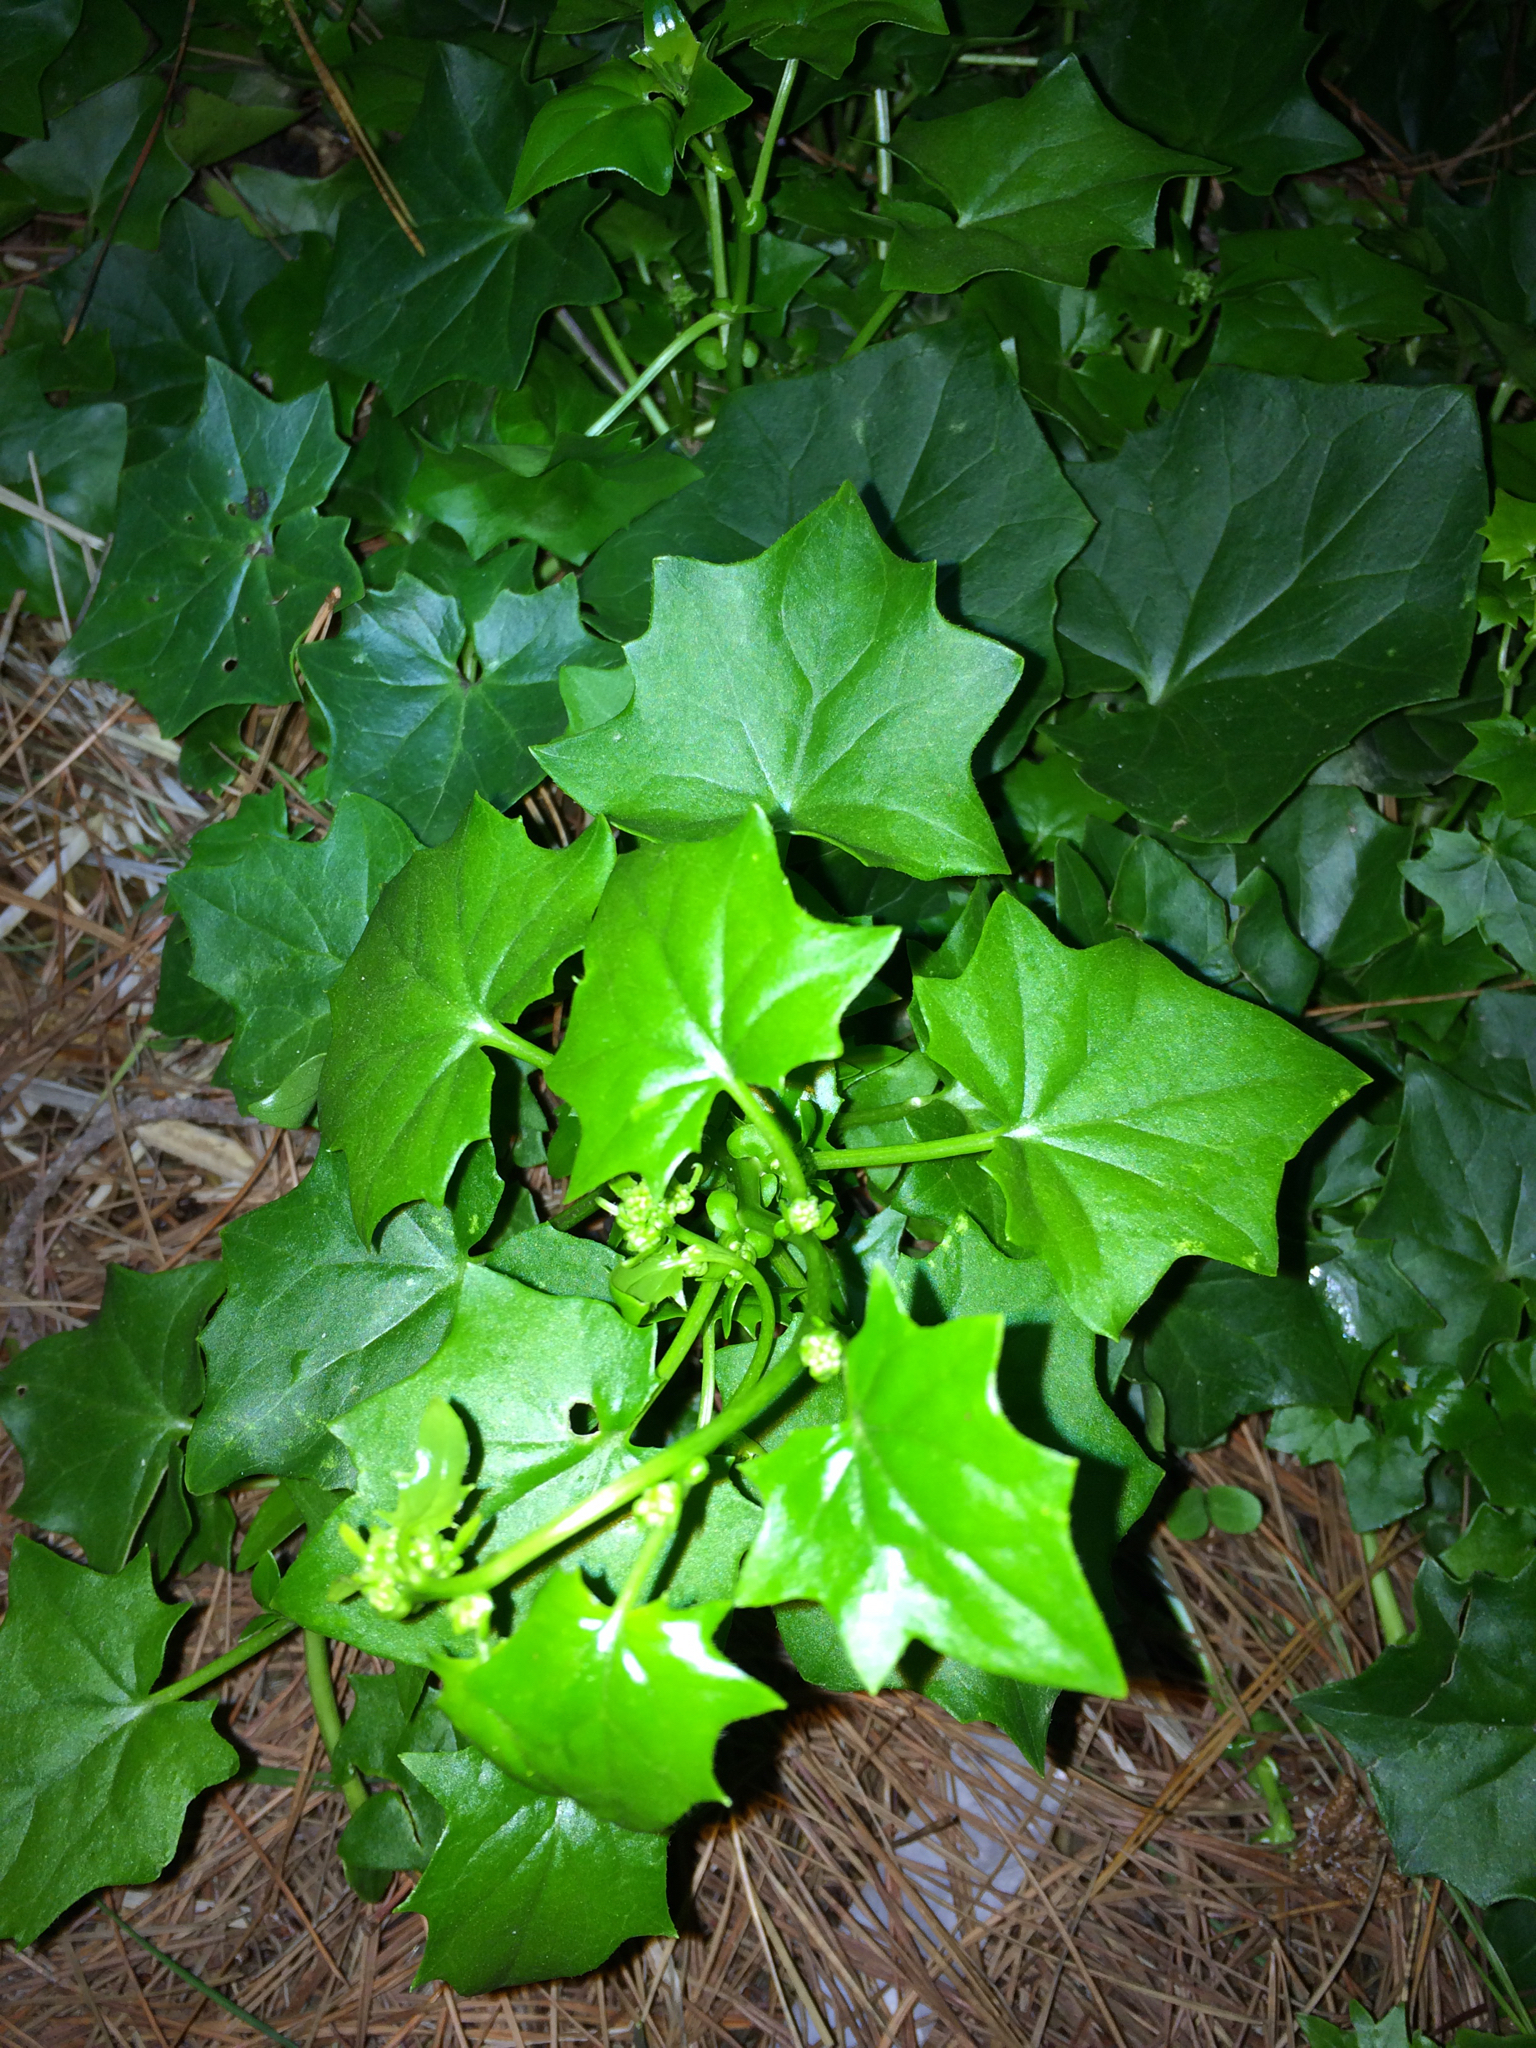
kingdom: Plantae
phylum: Tracheophyta
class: Magnoliopsida
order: Asterales
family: Asteraceae
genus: Delairea
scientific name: Delairea odorata
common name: Cape-ivy
